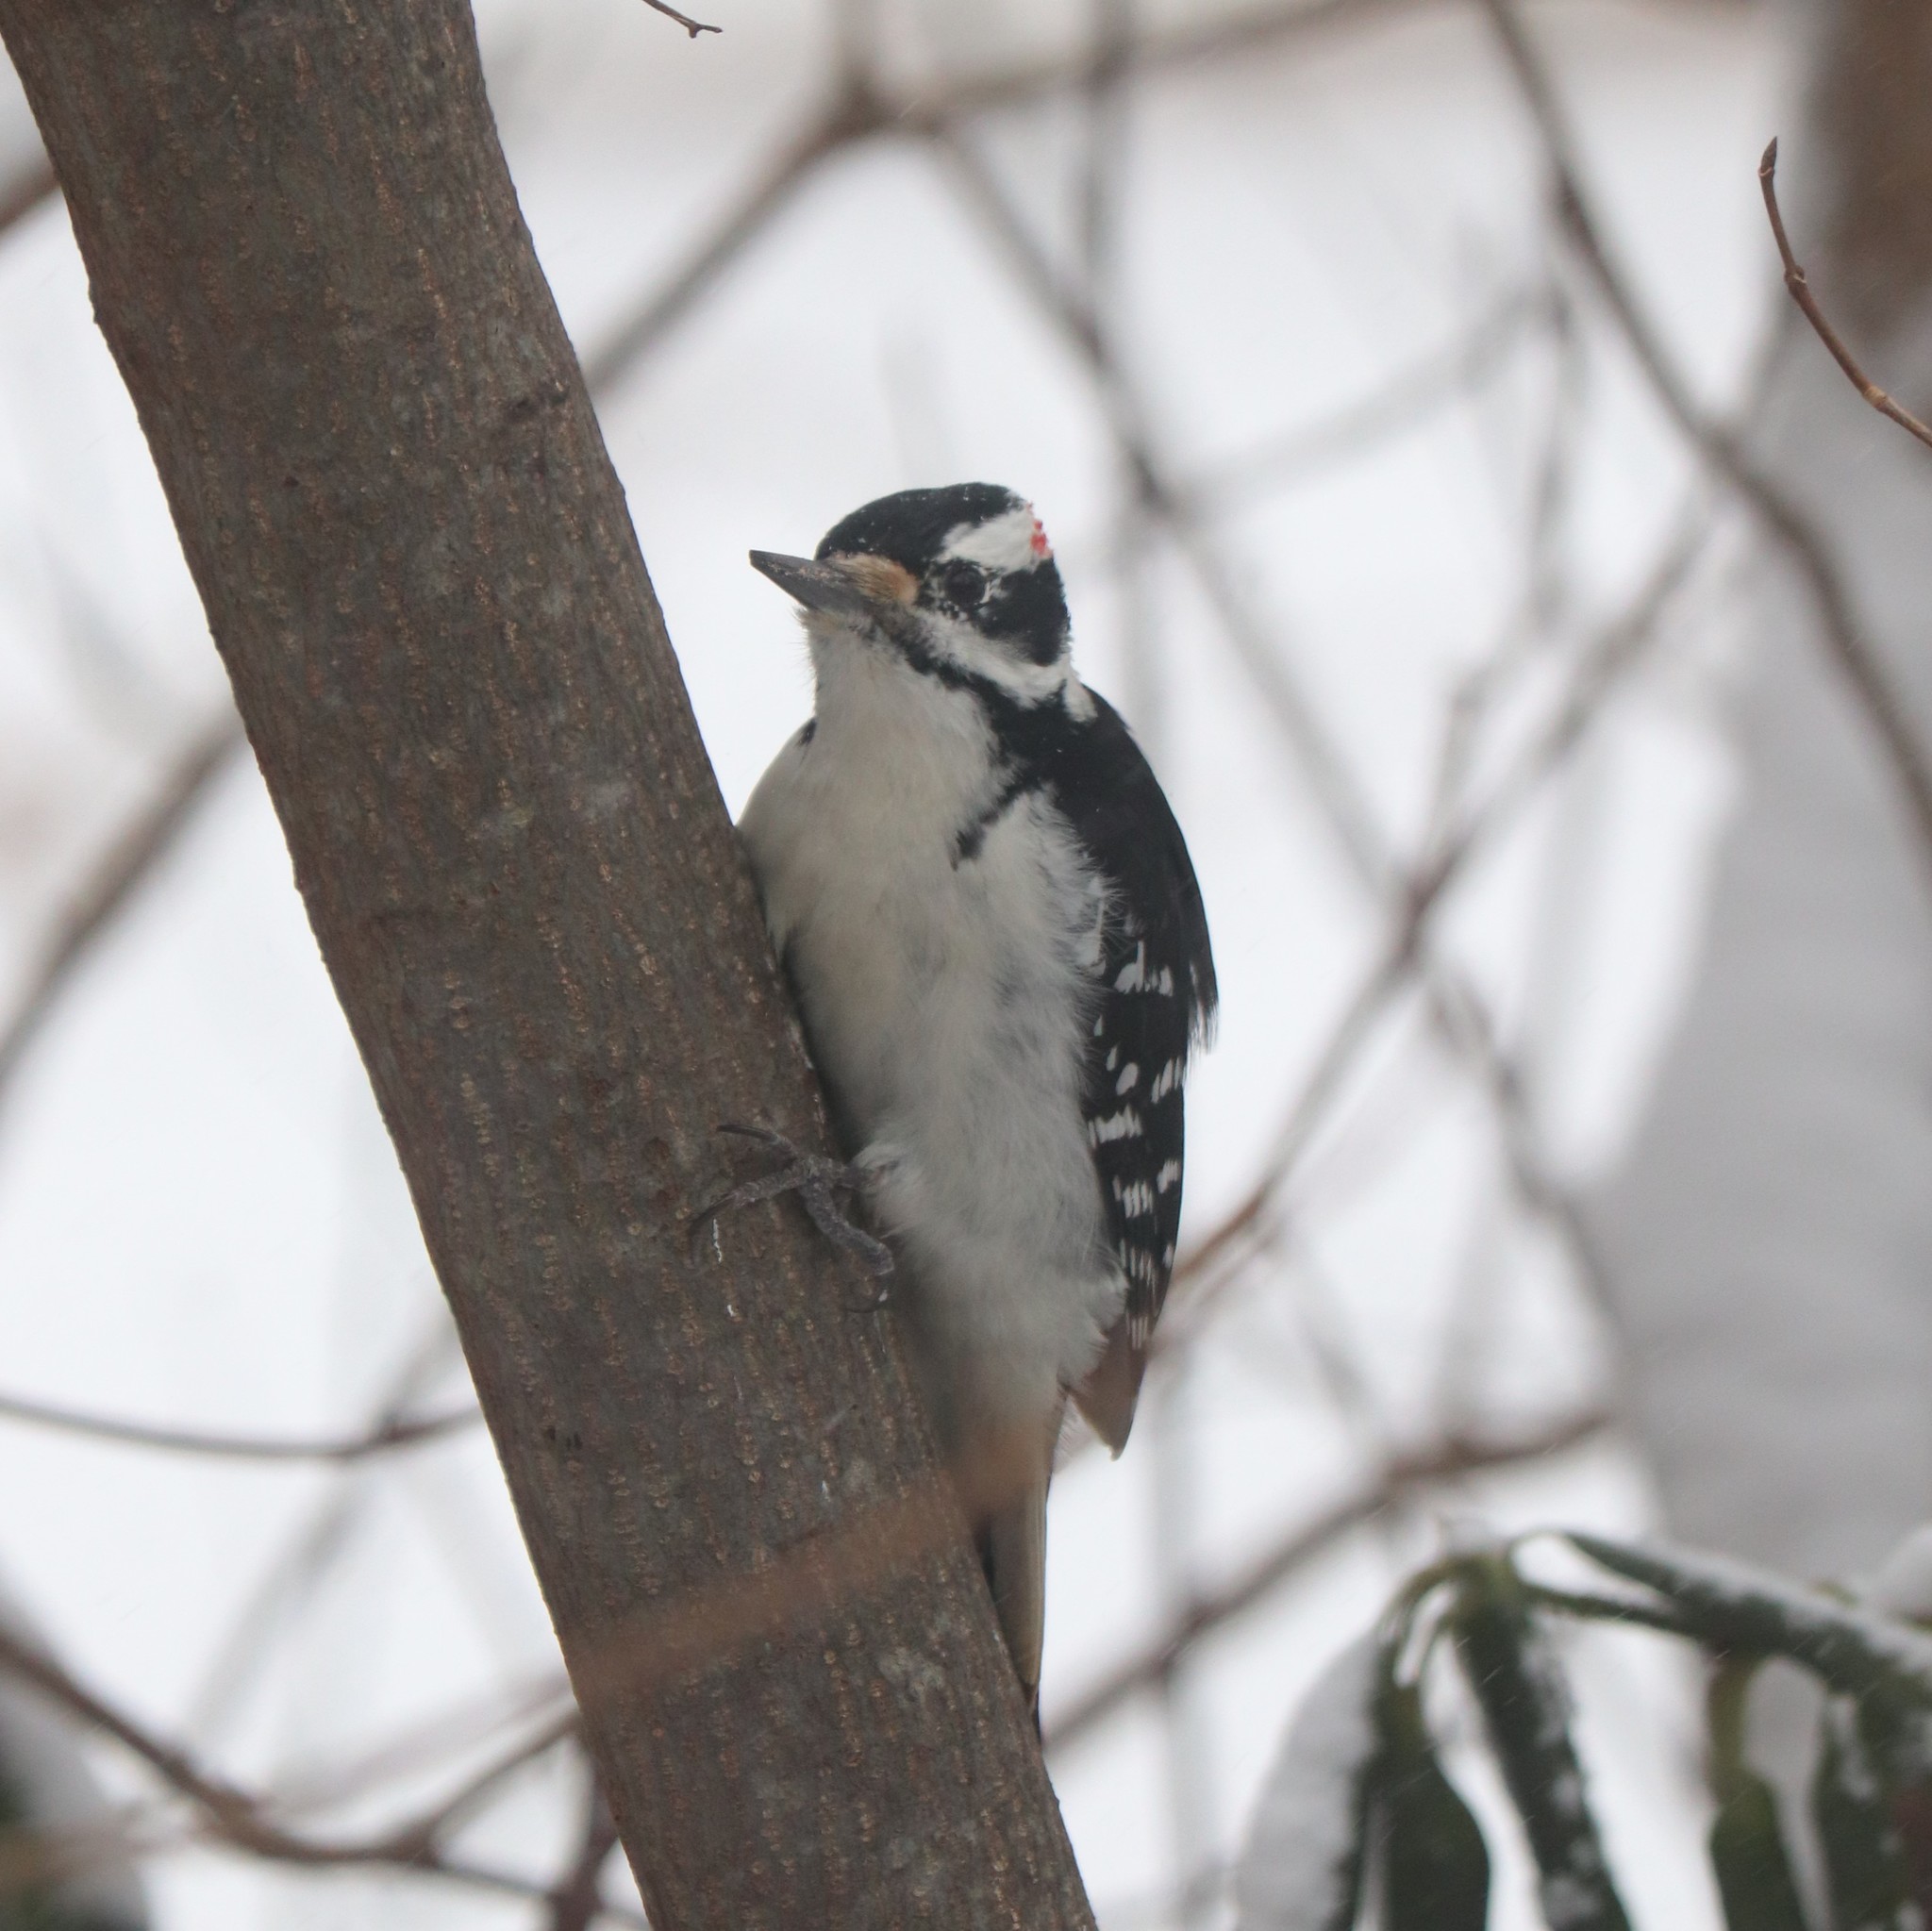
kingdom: Animalia
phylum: Chordata
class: Aves
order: Piciformes
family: Picidae
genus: Leuconotopicus
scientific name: Leuconotopicus villosus
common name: Hairy woodpecker
